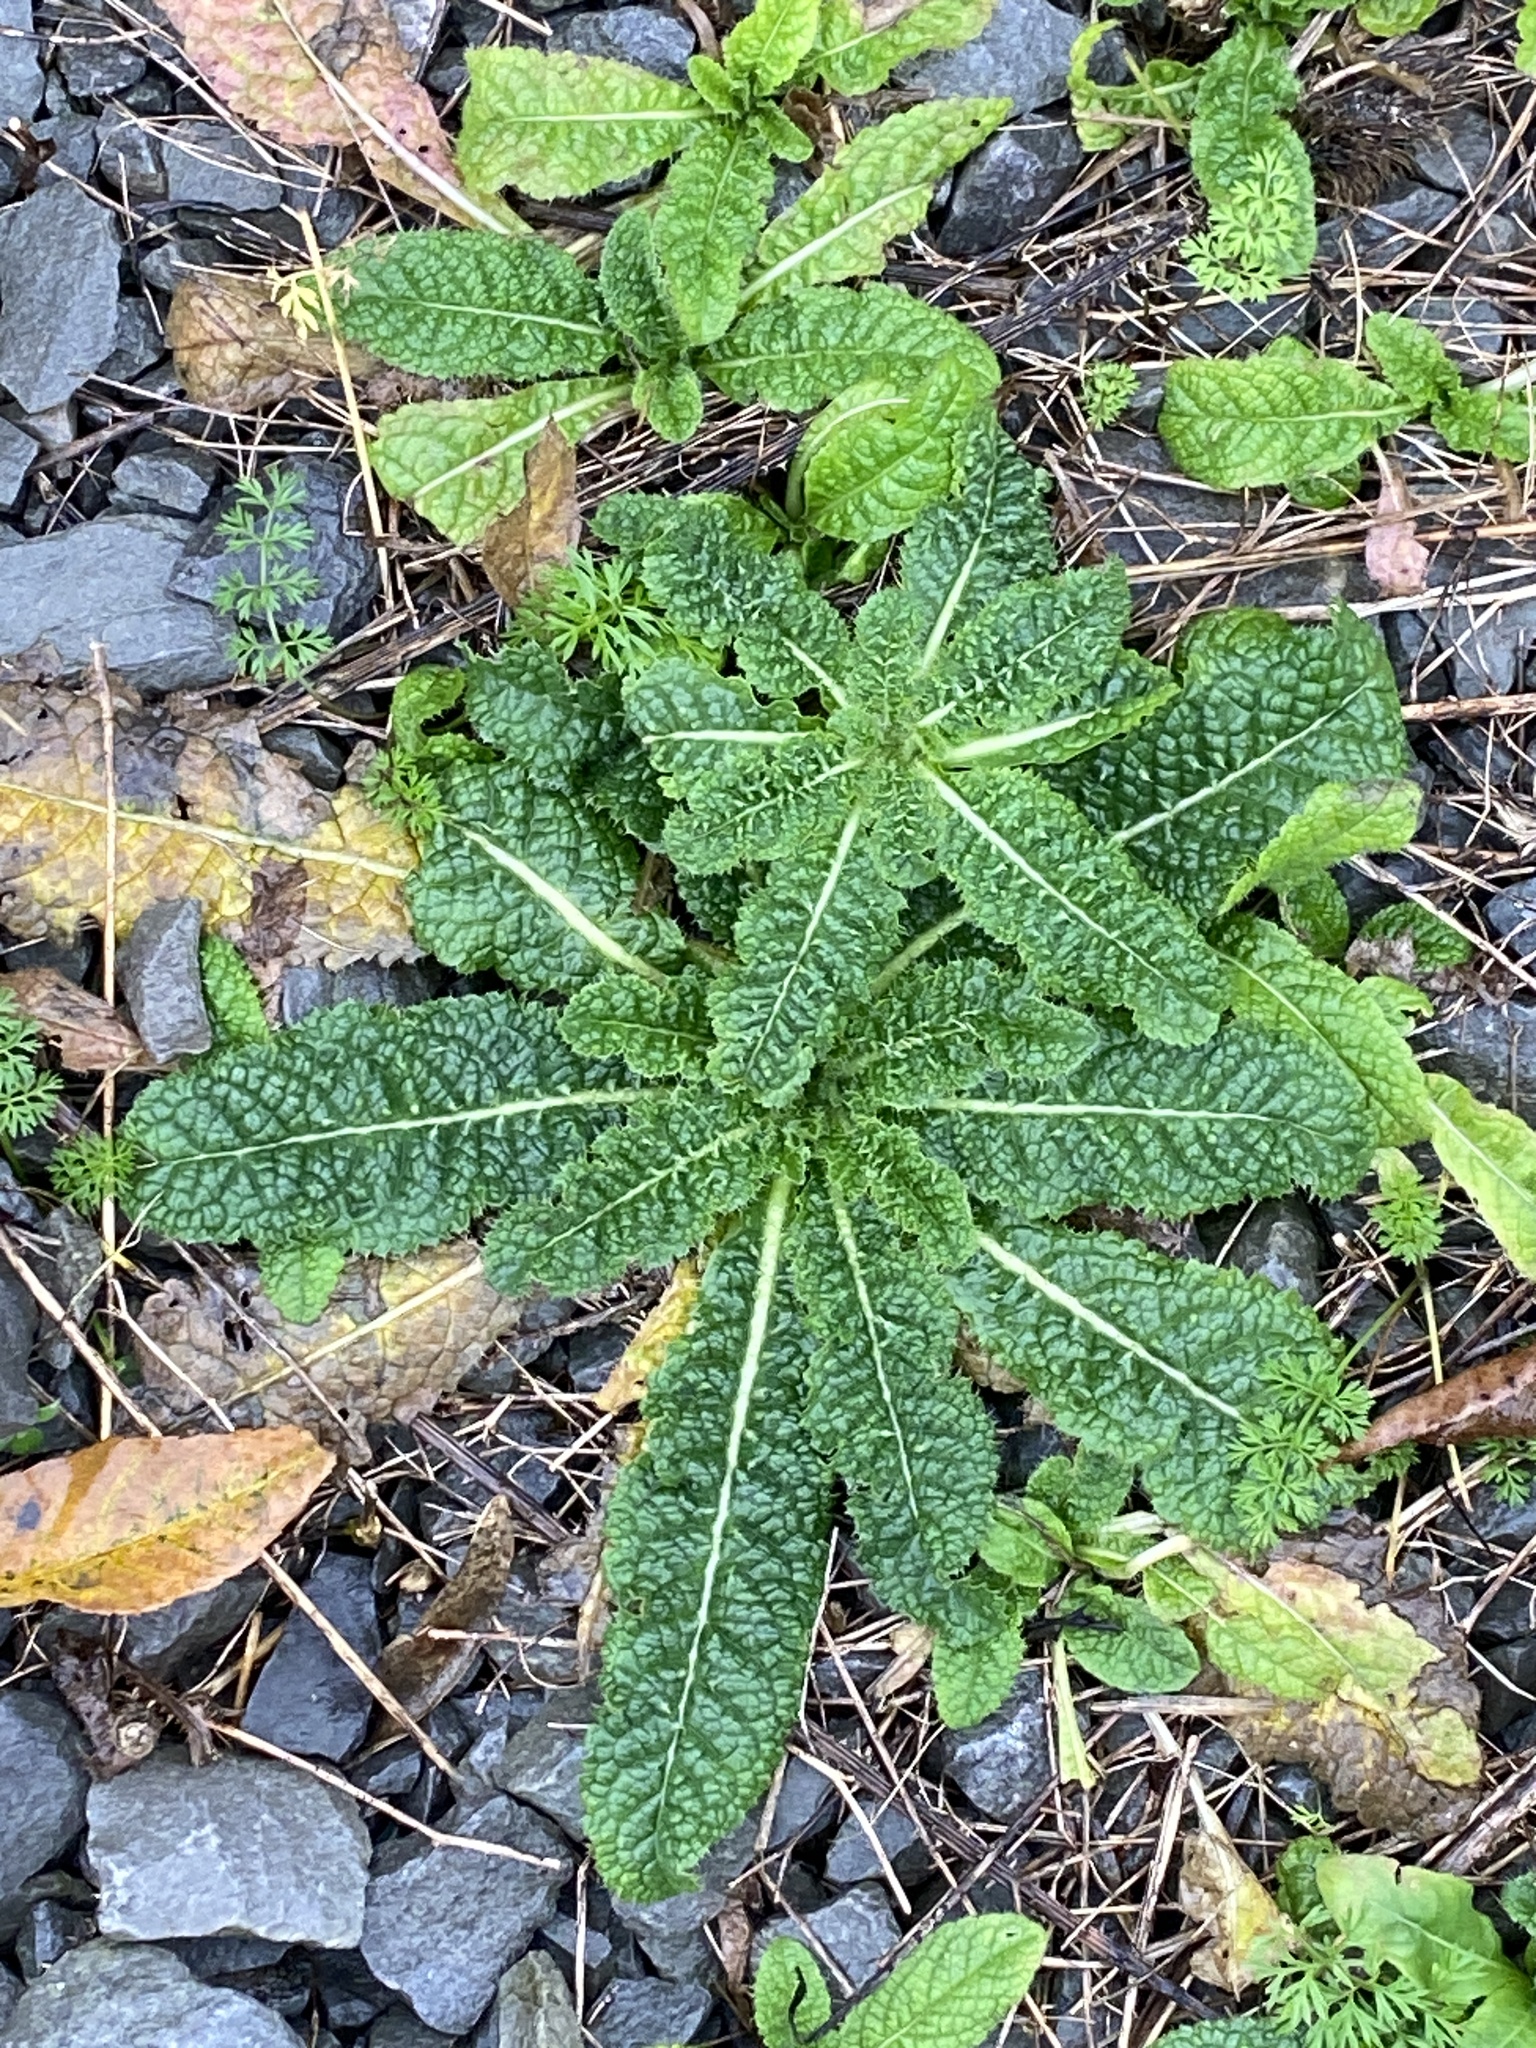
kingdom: Plantae
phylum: Tracheophyta
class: Magnoliopsida
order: Dipsacales
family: Caprifoliaceae
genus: Dipsacus
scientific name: Dipsacus fullonum
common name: Teasel
